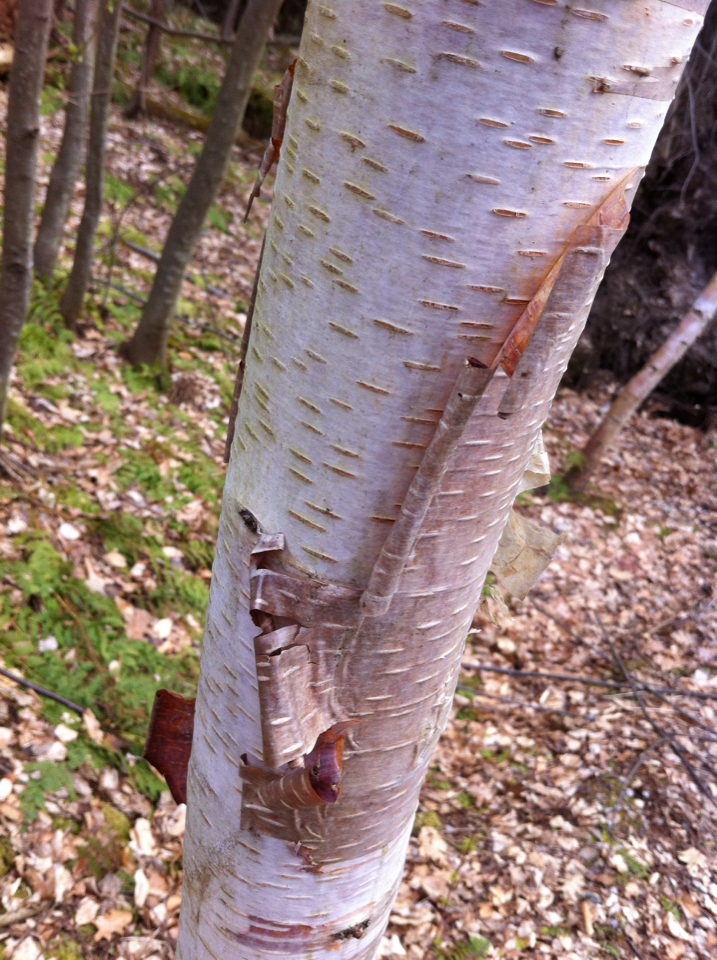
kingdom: Plantae
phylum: Tracheophyta
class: Magnoliopsida
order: Fagales
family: Betulaceae
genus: Betula
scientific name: Betula papyrifera
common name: Paper birch
